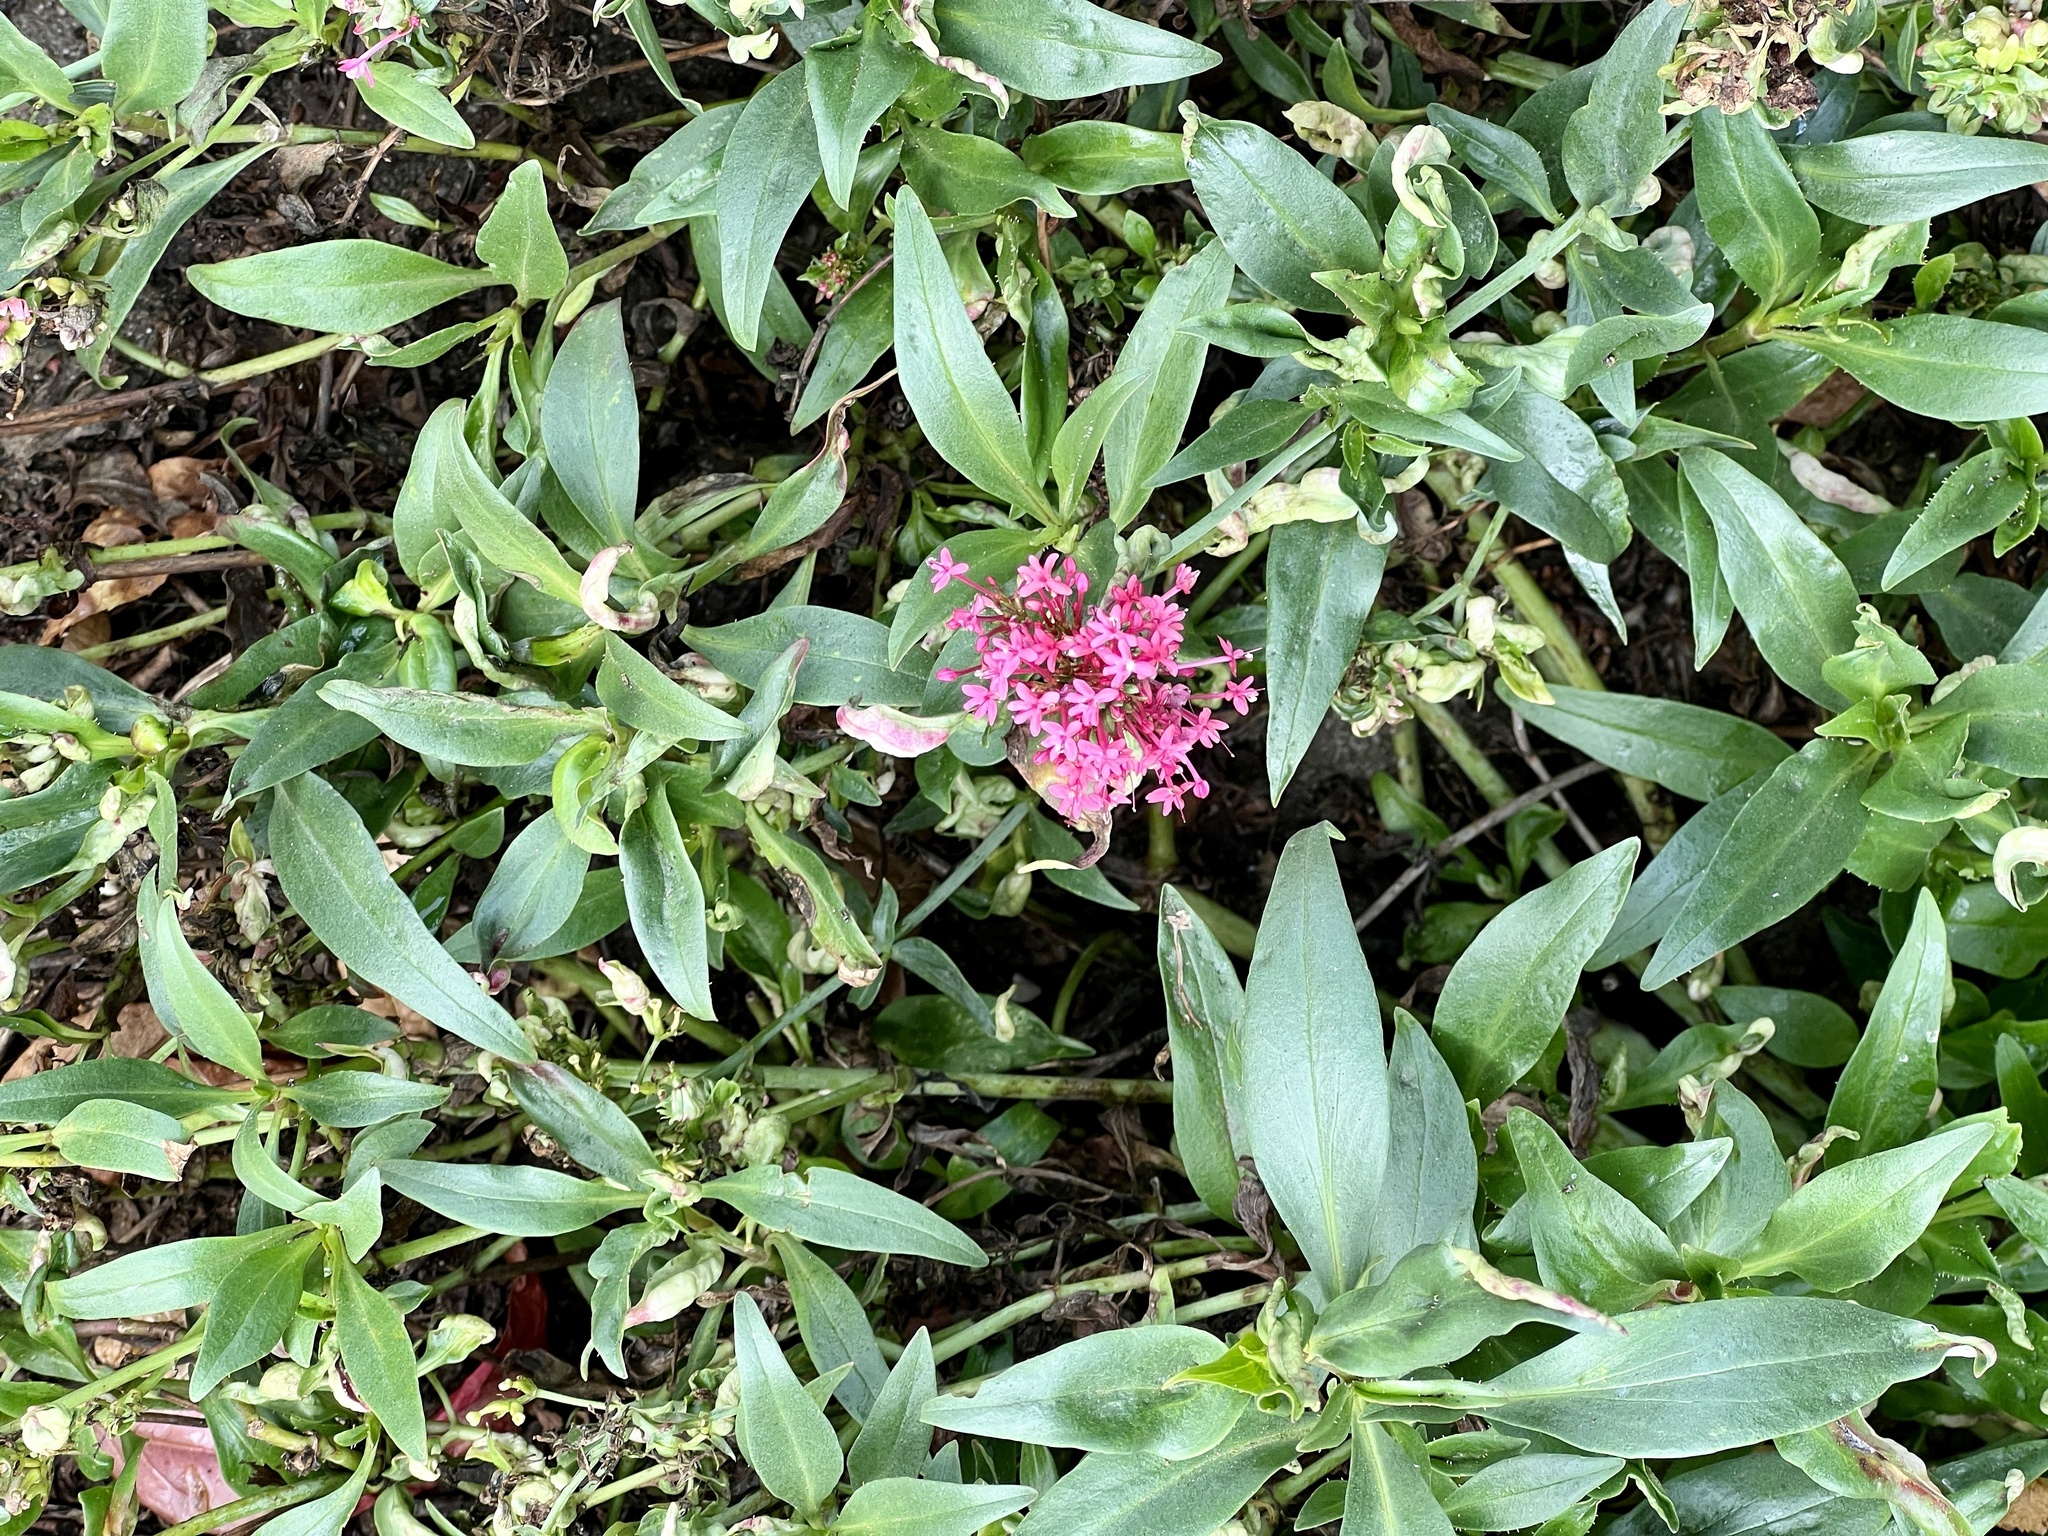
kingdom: Plantae
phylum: Tracheophyta
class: Magnoliopsida
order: Dipsacales
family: Caprifoliaceae
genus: Centranthus
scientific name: Centranthus ruber
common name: Red valerian
